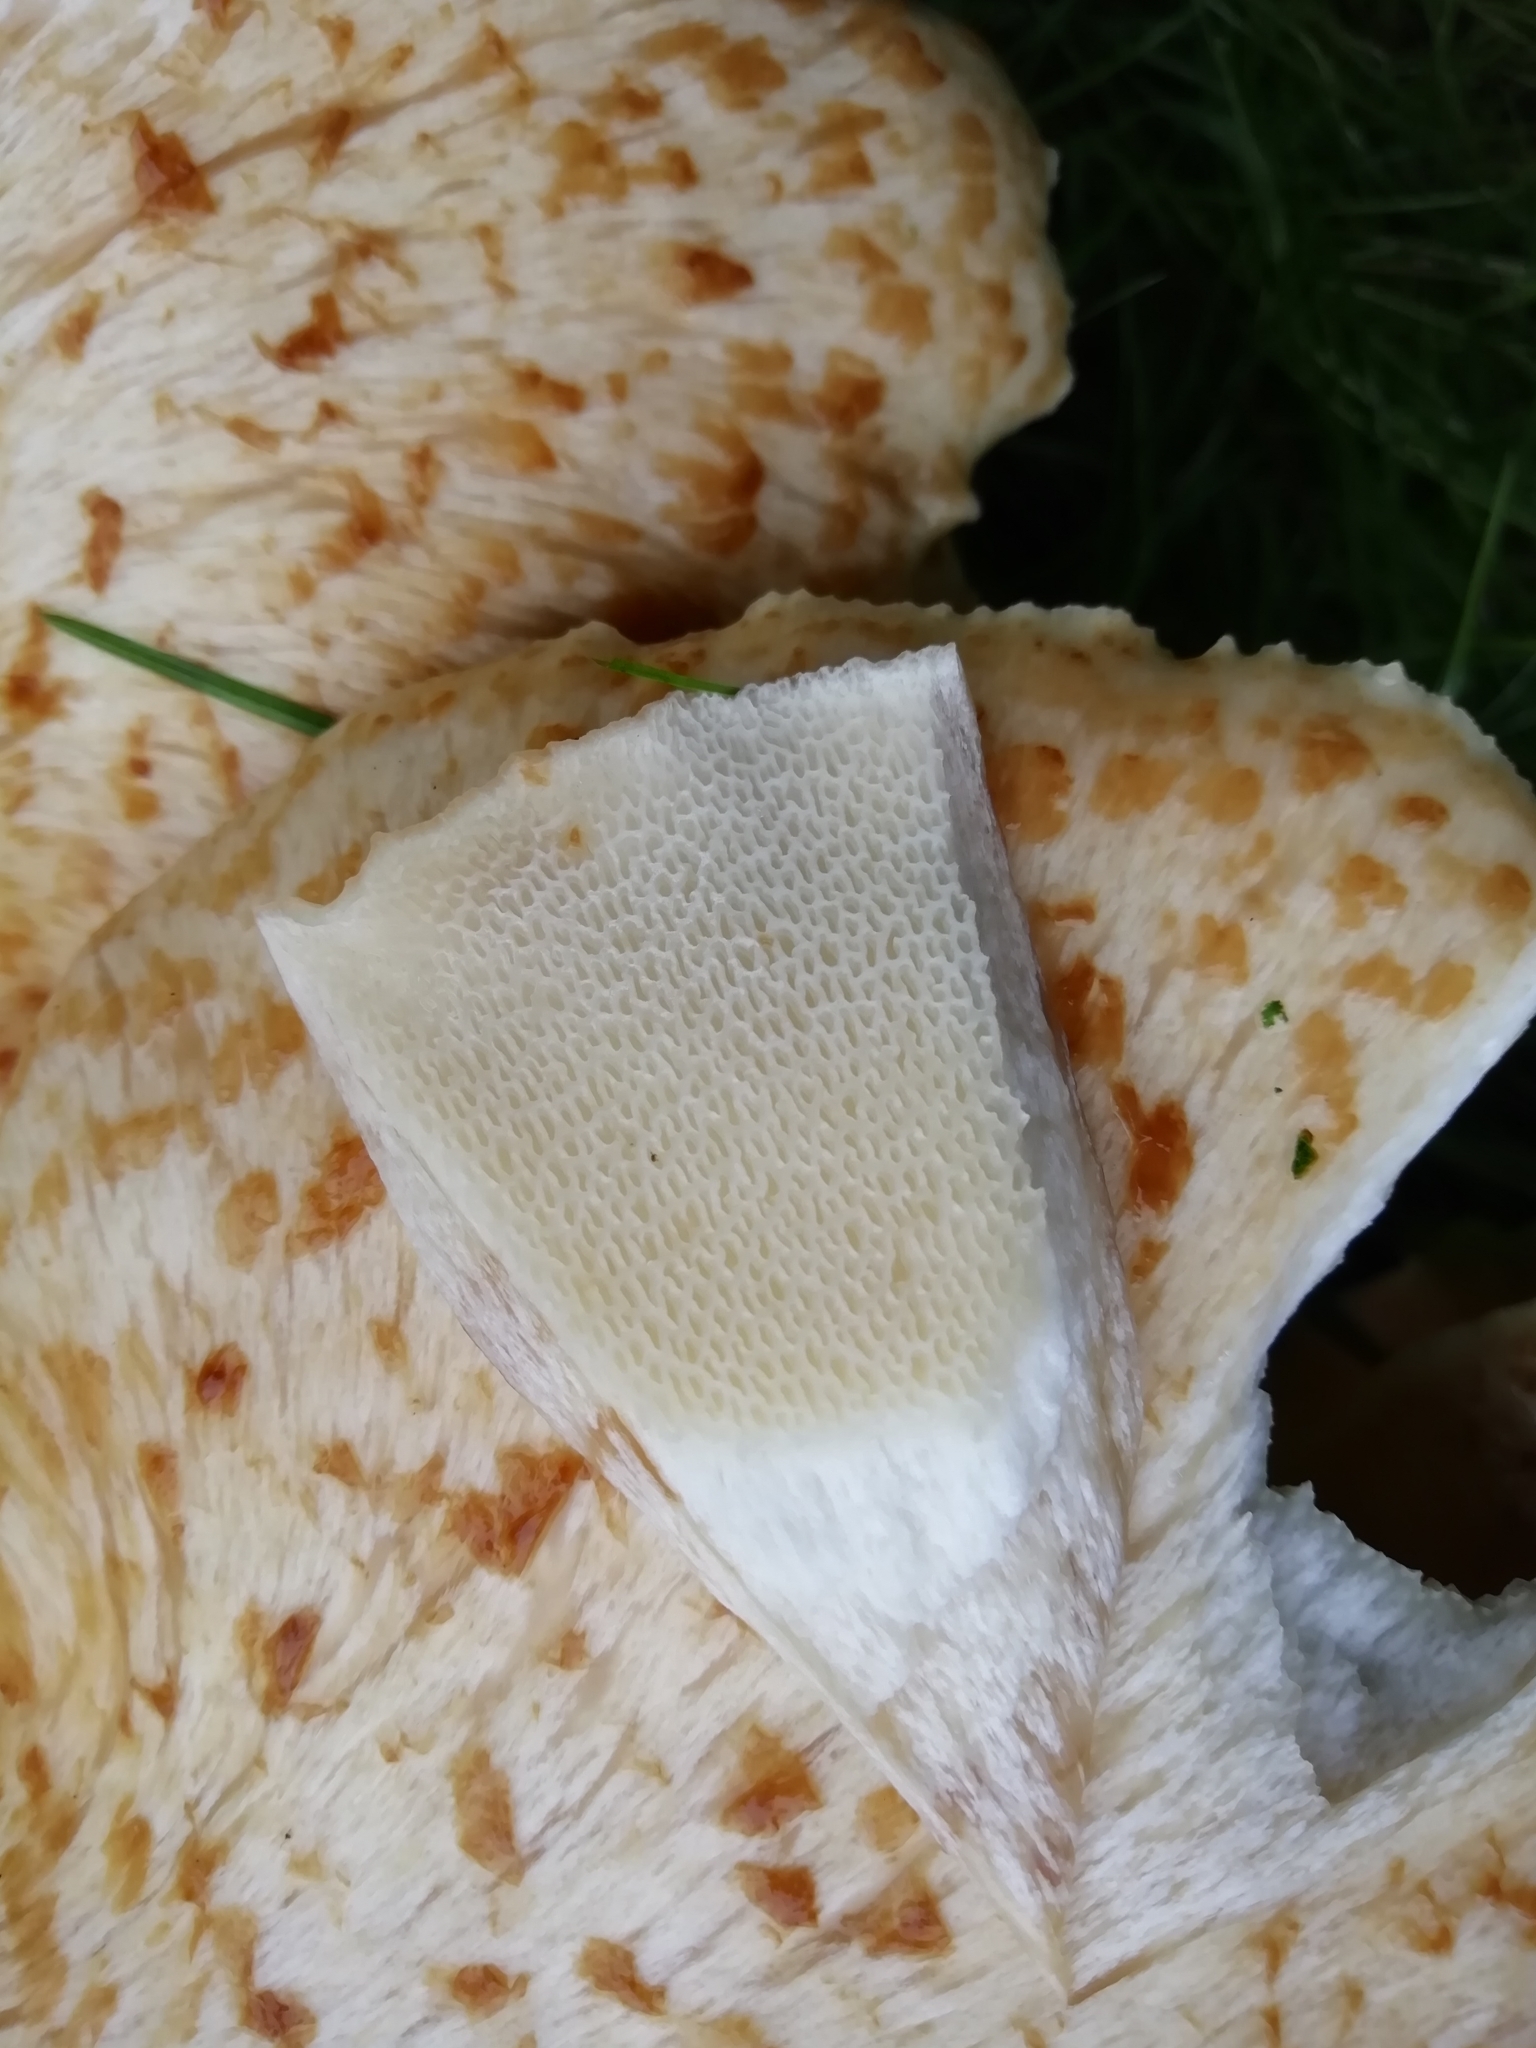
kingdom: Fungi
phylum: Basidiomycota
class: Agaricomycetes
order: Polyporales
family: Polyporaceae
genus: Cerioporus
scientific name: Cerioporus squamosus
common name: Dryad's saddle
